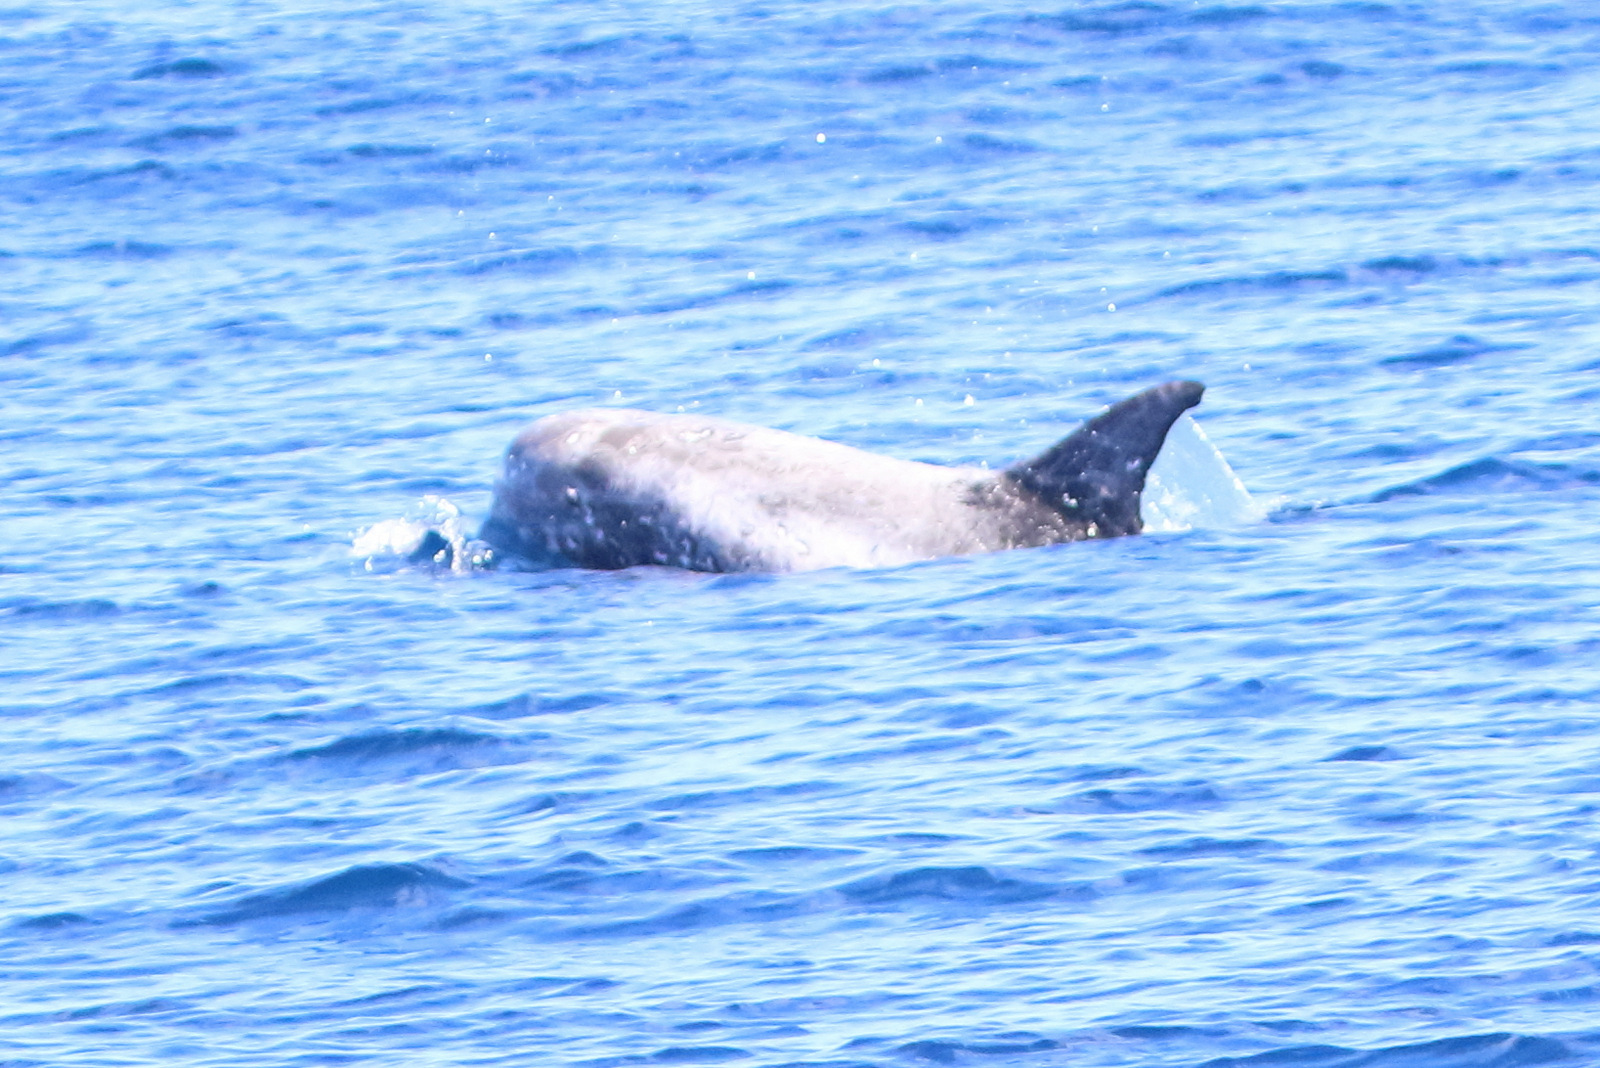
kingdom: Animalia
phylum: Chordata
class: Mammalia
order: Cetacea
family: Delphinidae
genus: Grampus
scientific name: Grampus griseus
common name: Risso's dolphin
